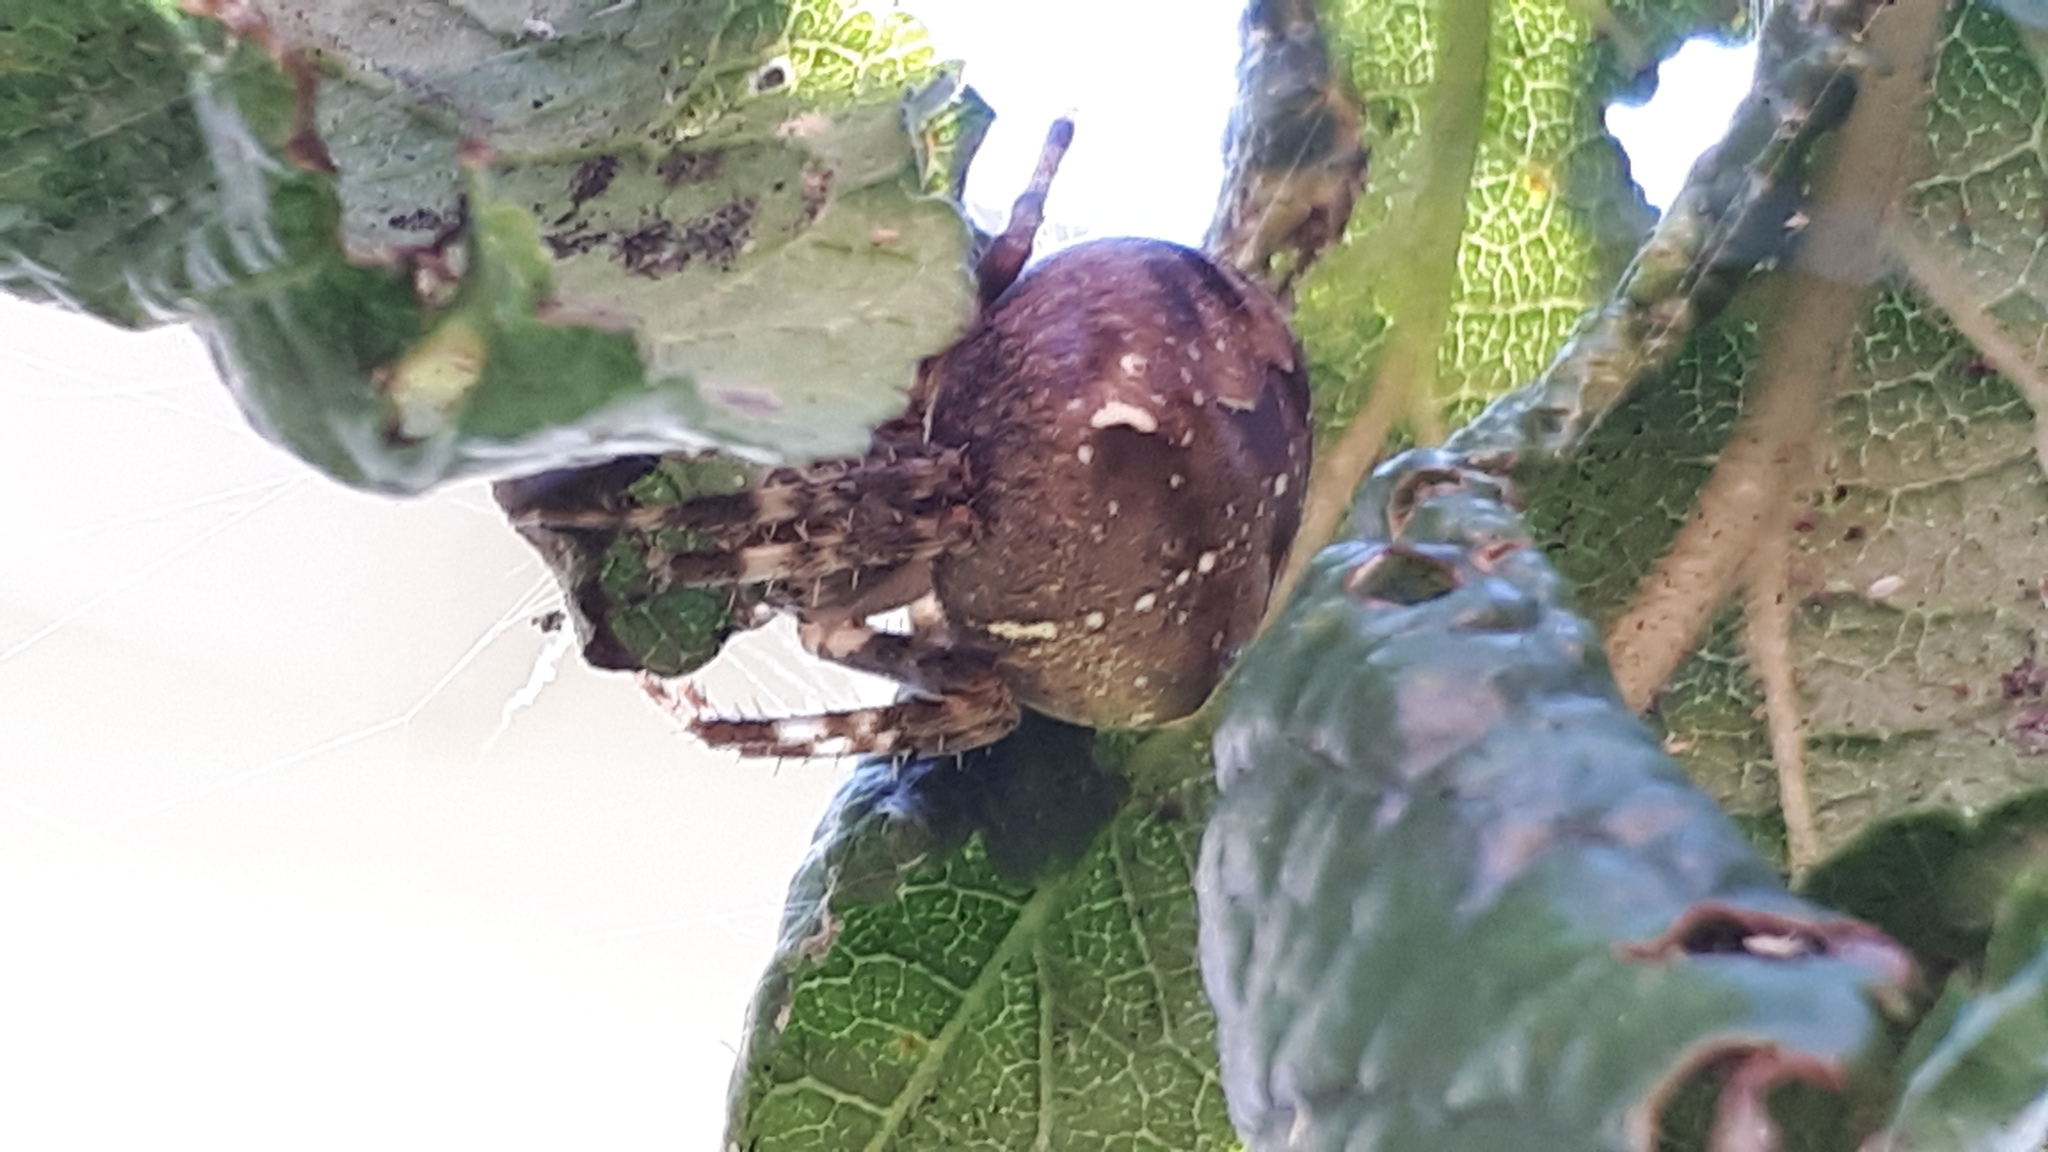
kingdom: Animalia
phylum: Arthropoda
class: Arachnida
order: Araneae
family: Araneidae
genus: Araneus
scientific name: Araneus diadematus
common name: Cross orbweaver
